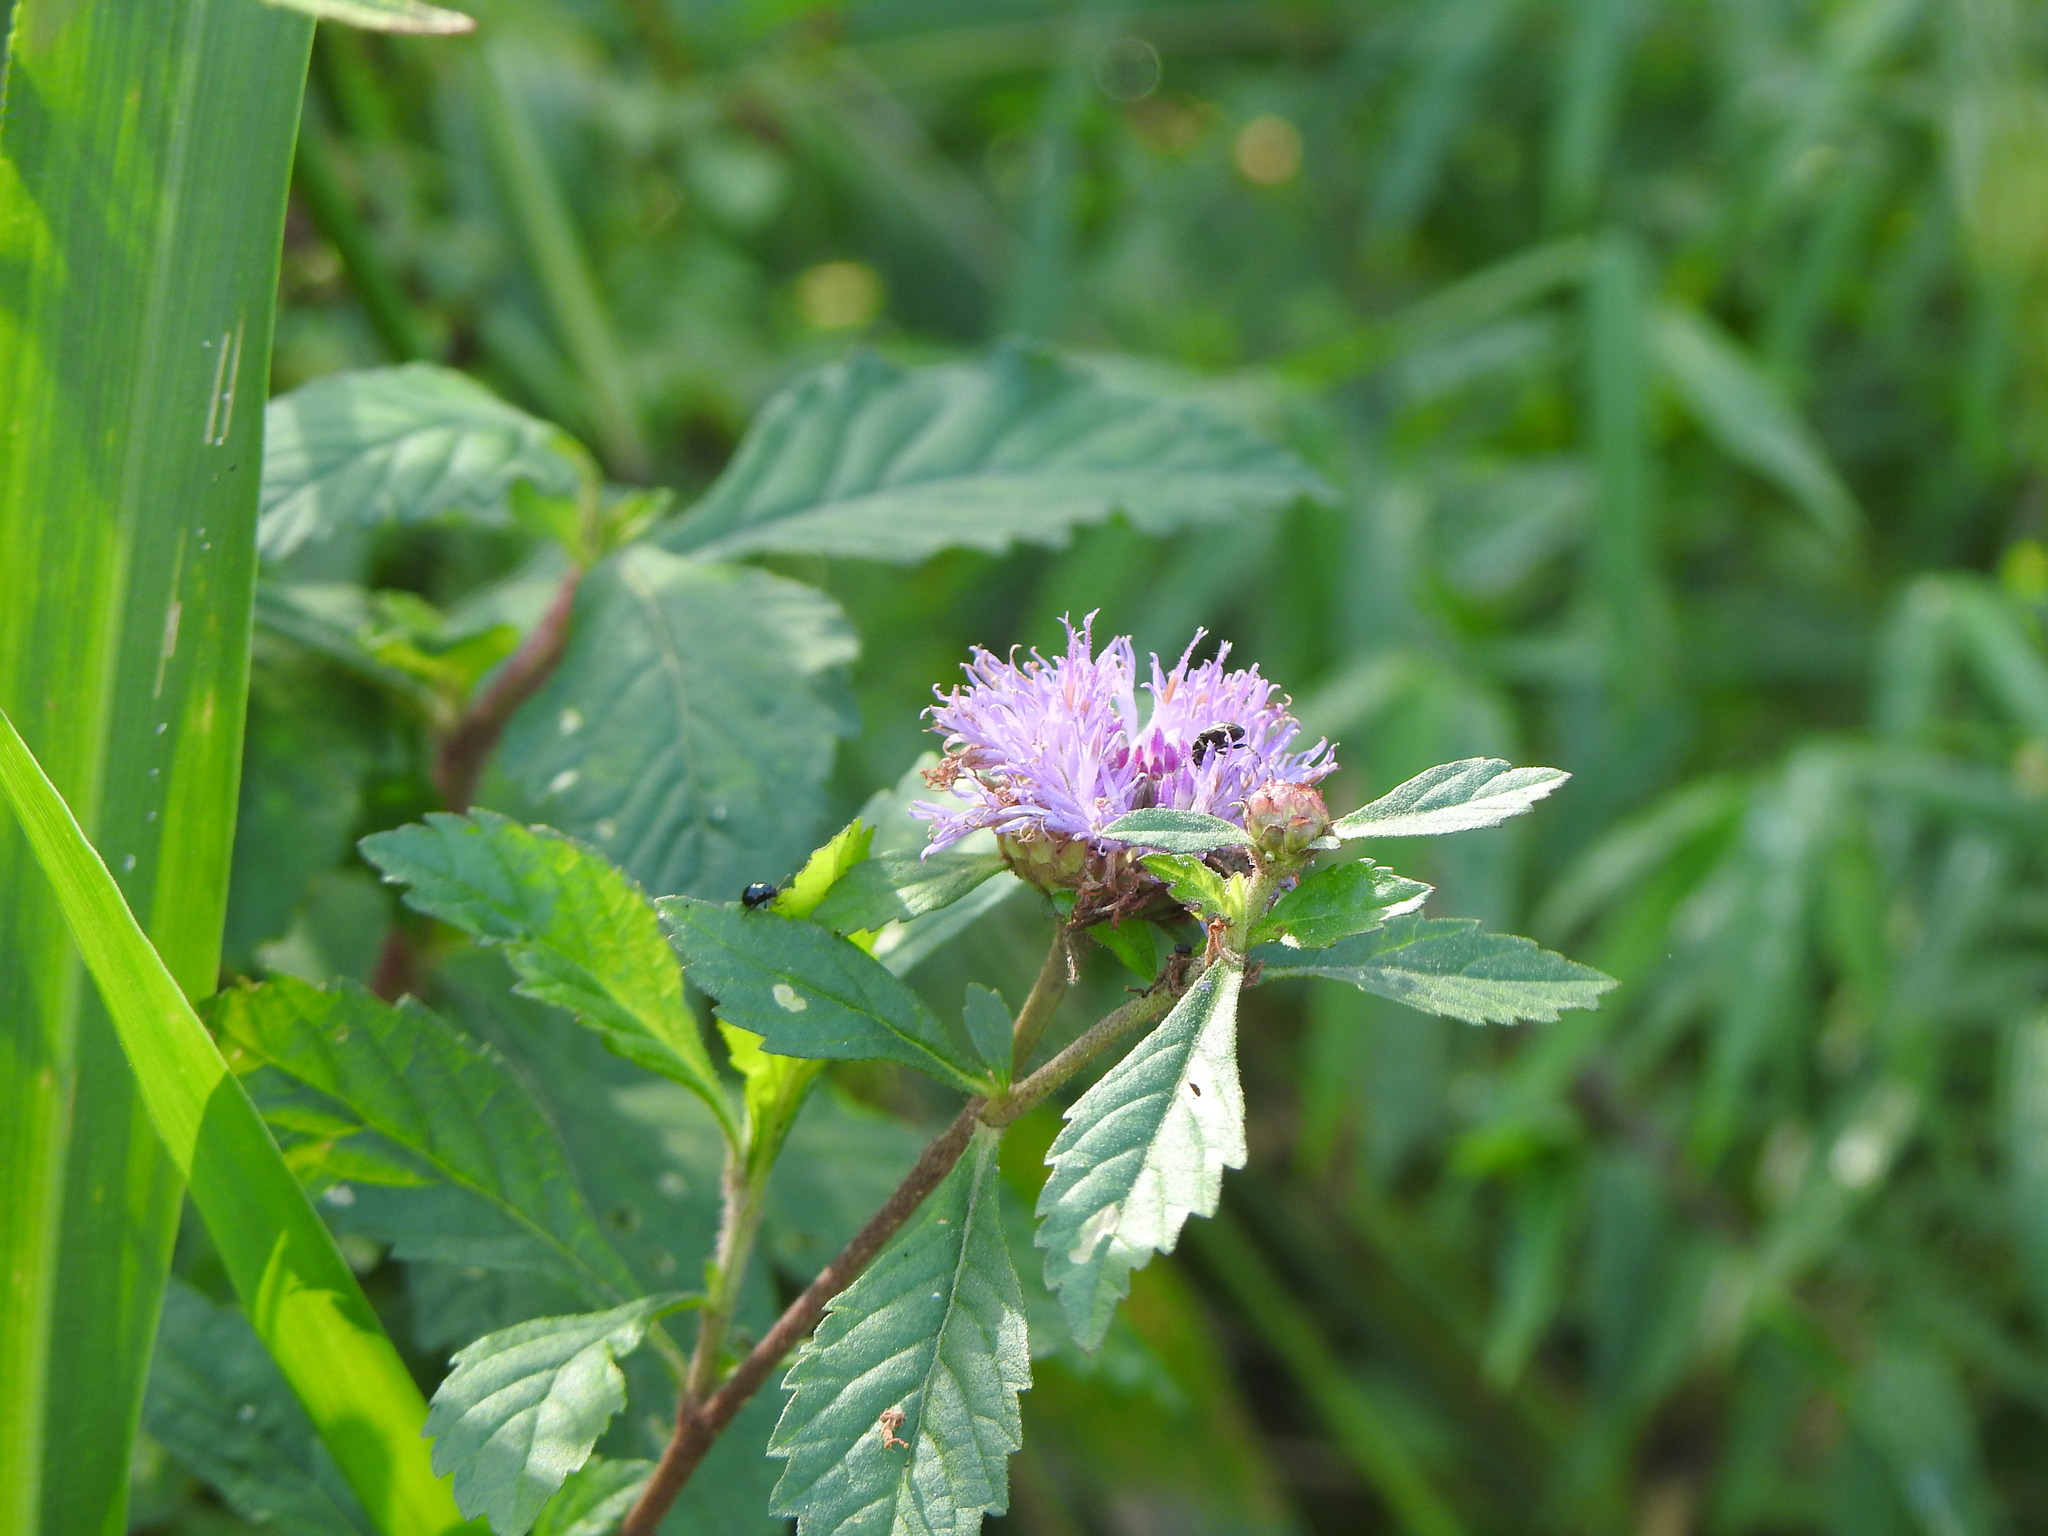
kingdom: Plantae
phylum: Tracheophyta
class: Magnoliopsida
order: Asterales
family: Asteraceae
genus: Centratherum
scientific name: Centratherum punctatum
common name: Larkdaisy
